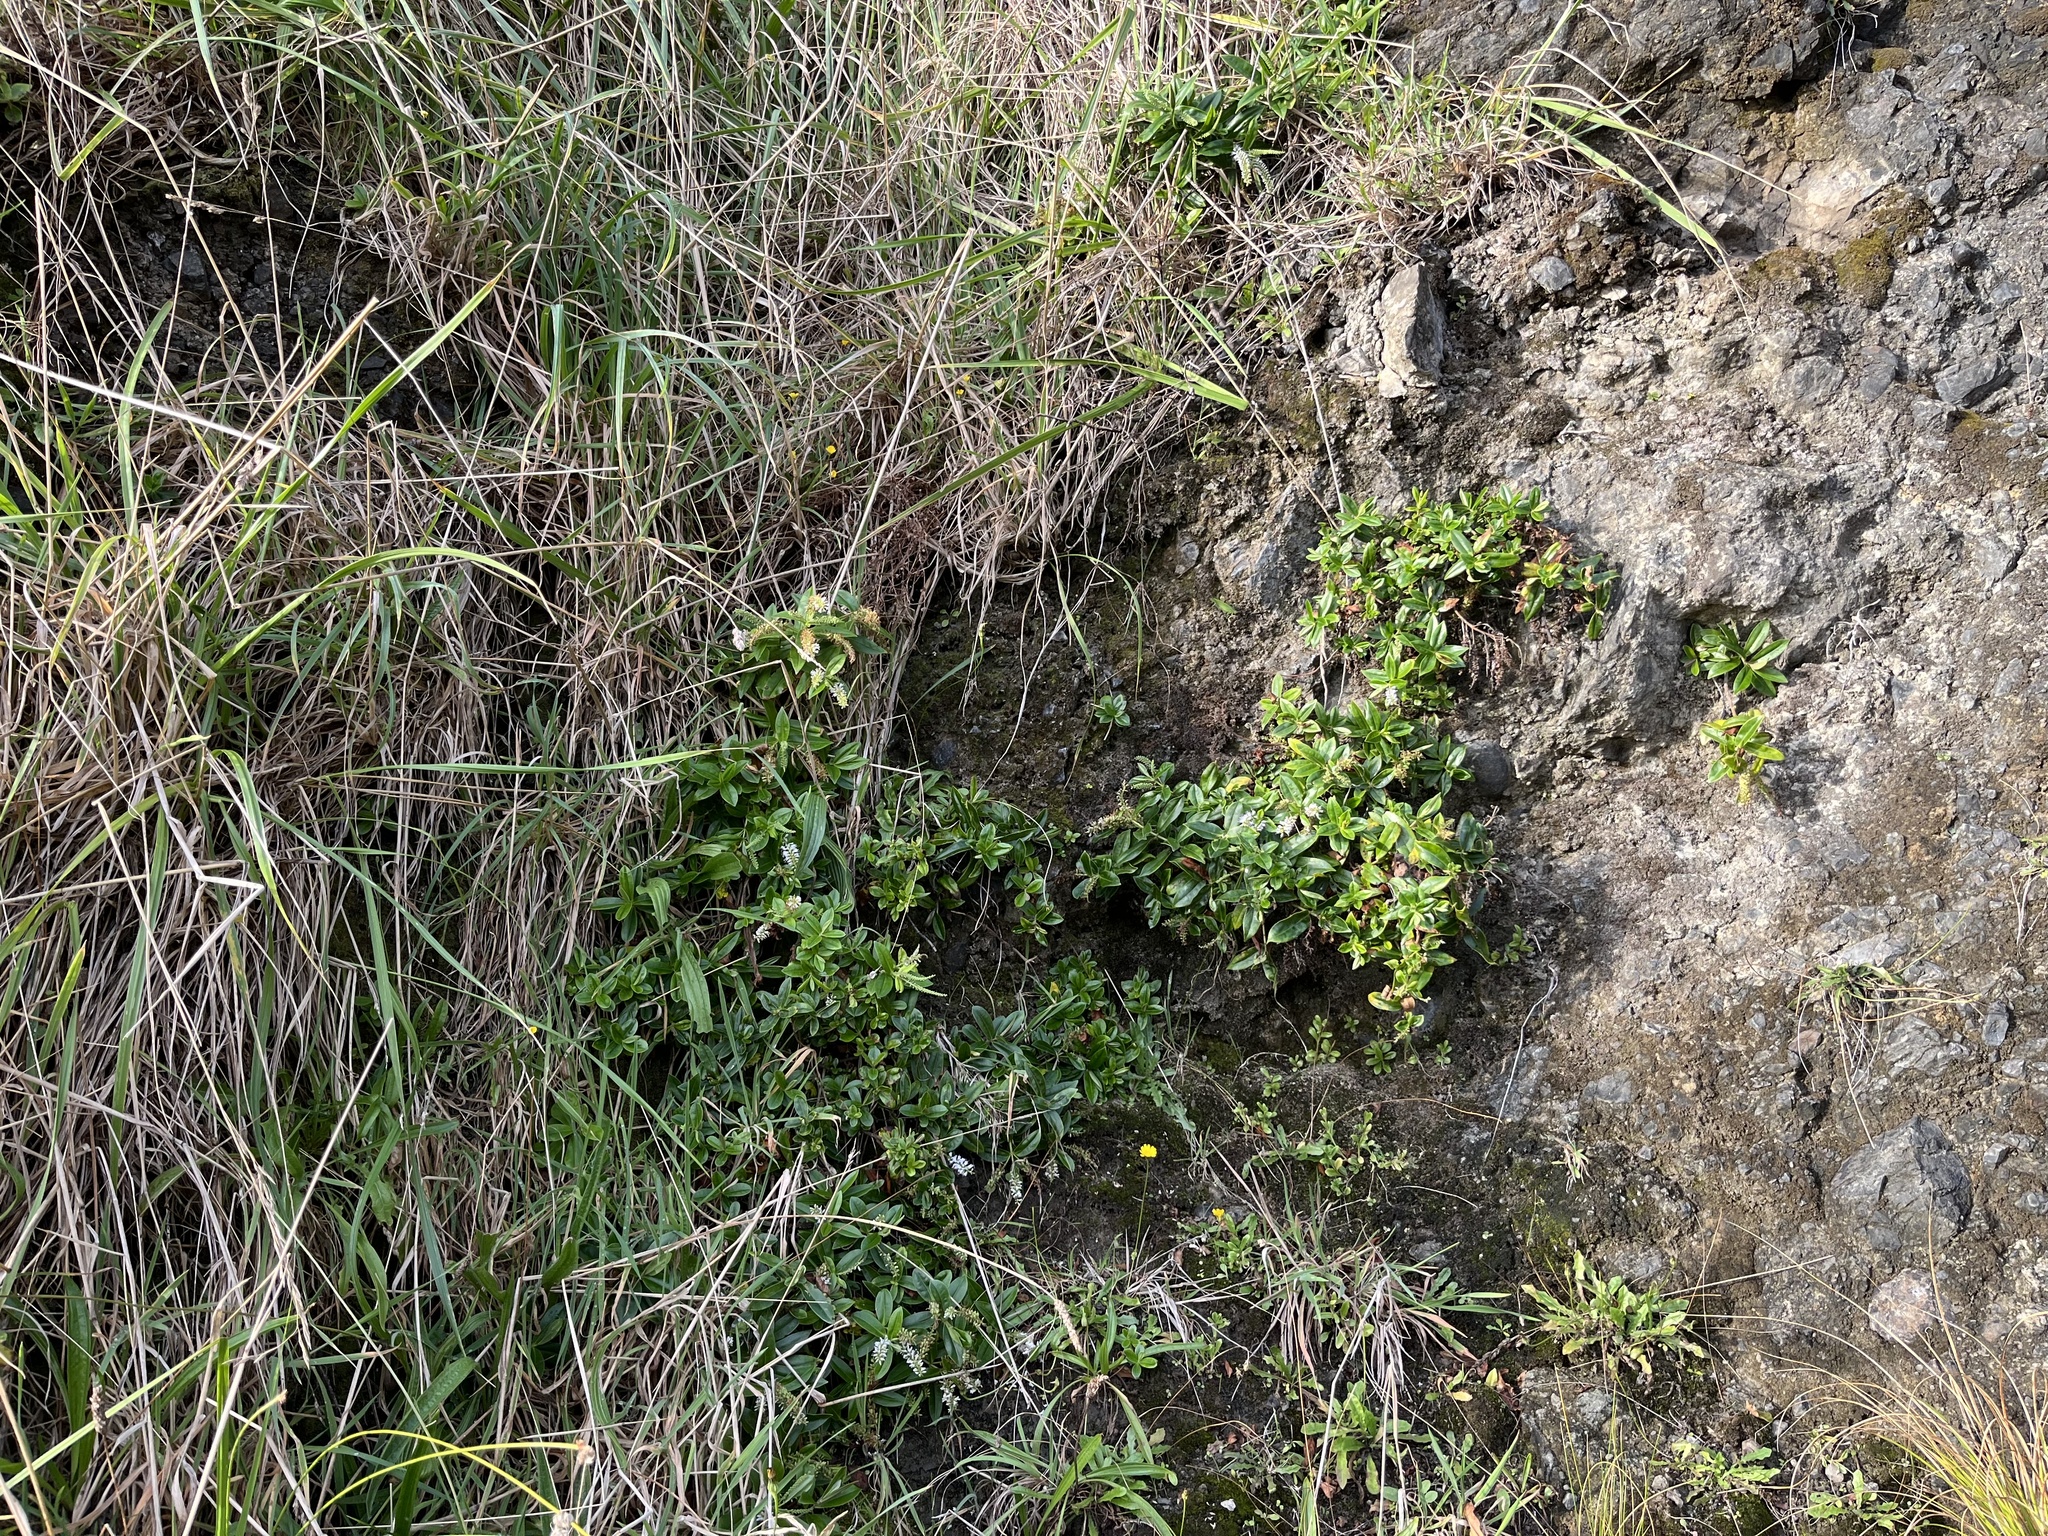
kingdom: Plantae
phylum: Tracheophyta
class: Magnoliopsida
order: Lamiales
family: Plantaginaceae
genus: Veronica
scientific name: Veronica stricta
